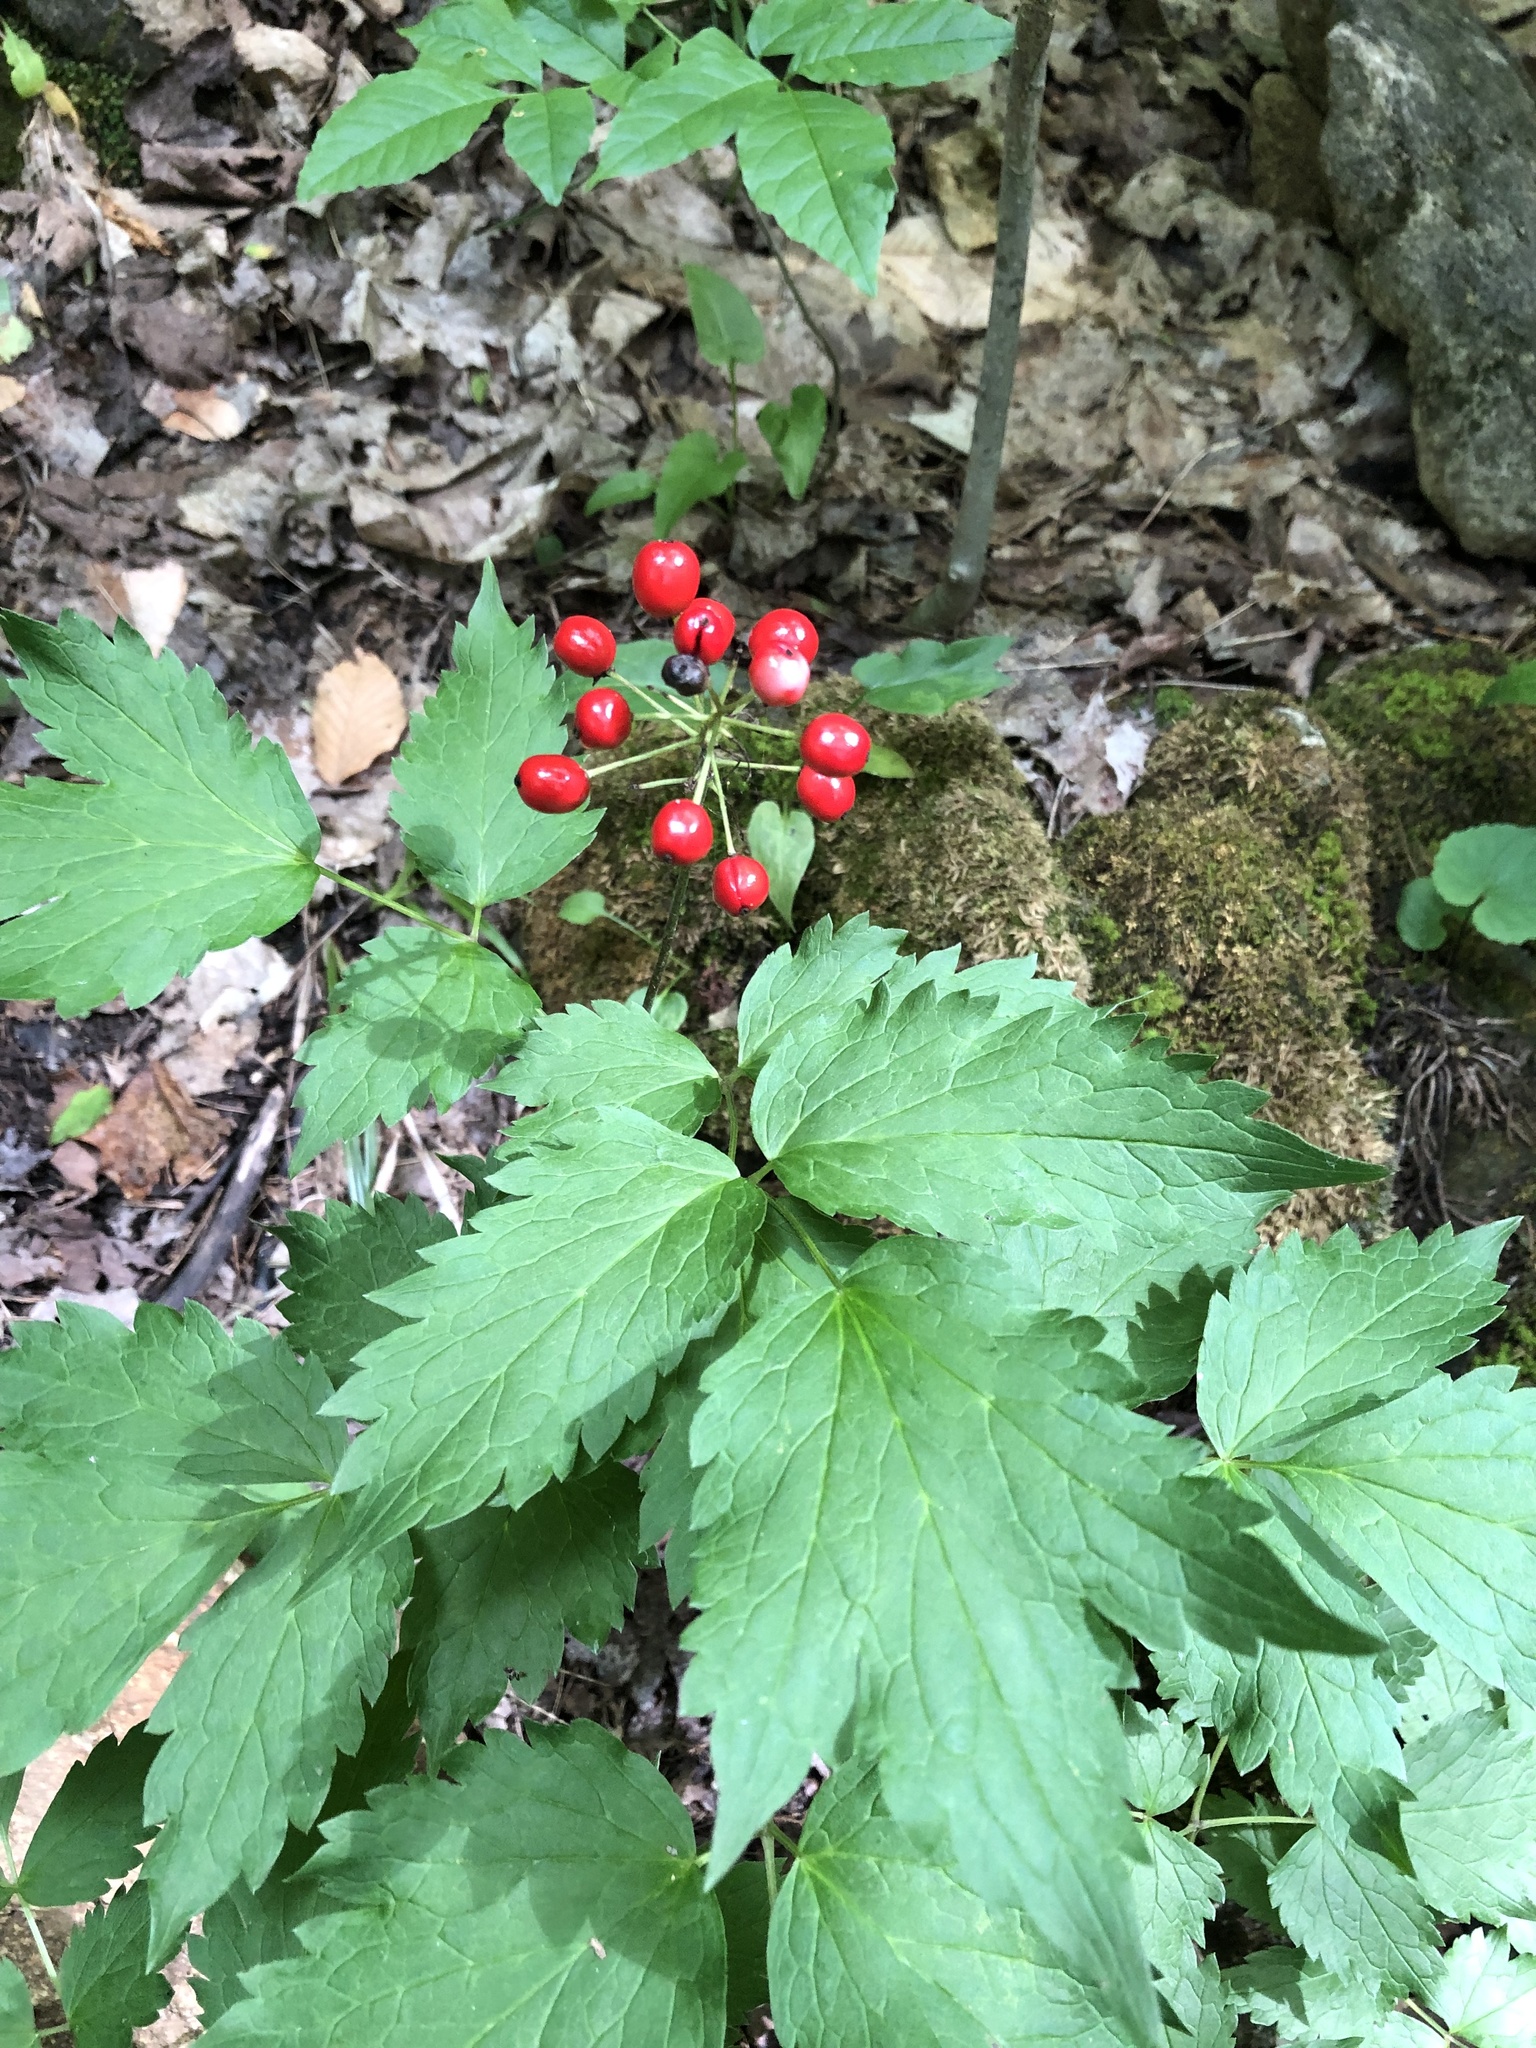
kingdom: Plantae
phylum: Tracheophyta
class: Magnoliopsida
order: Ranunculales
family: Ranunculaceae
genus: Actaea
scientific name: Actaea rubra
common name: Red baneberry
